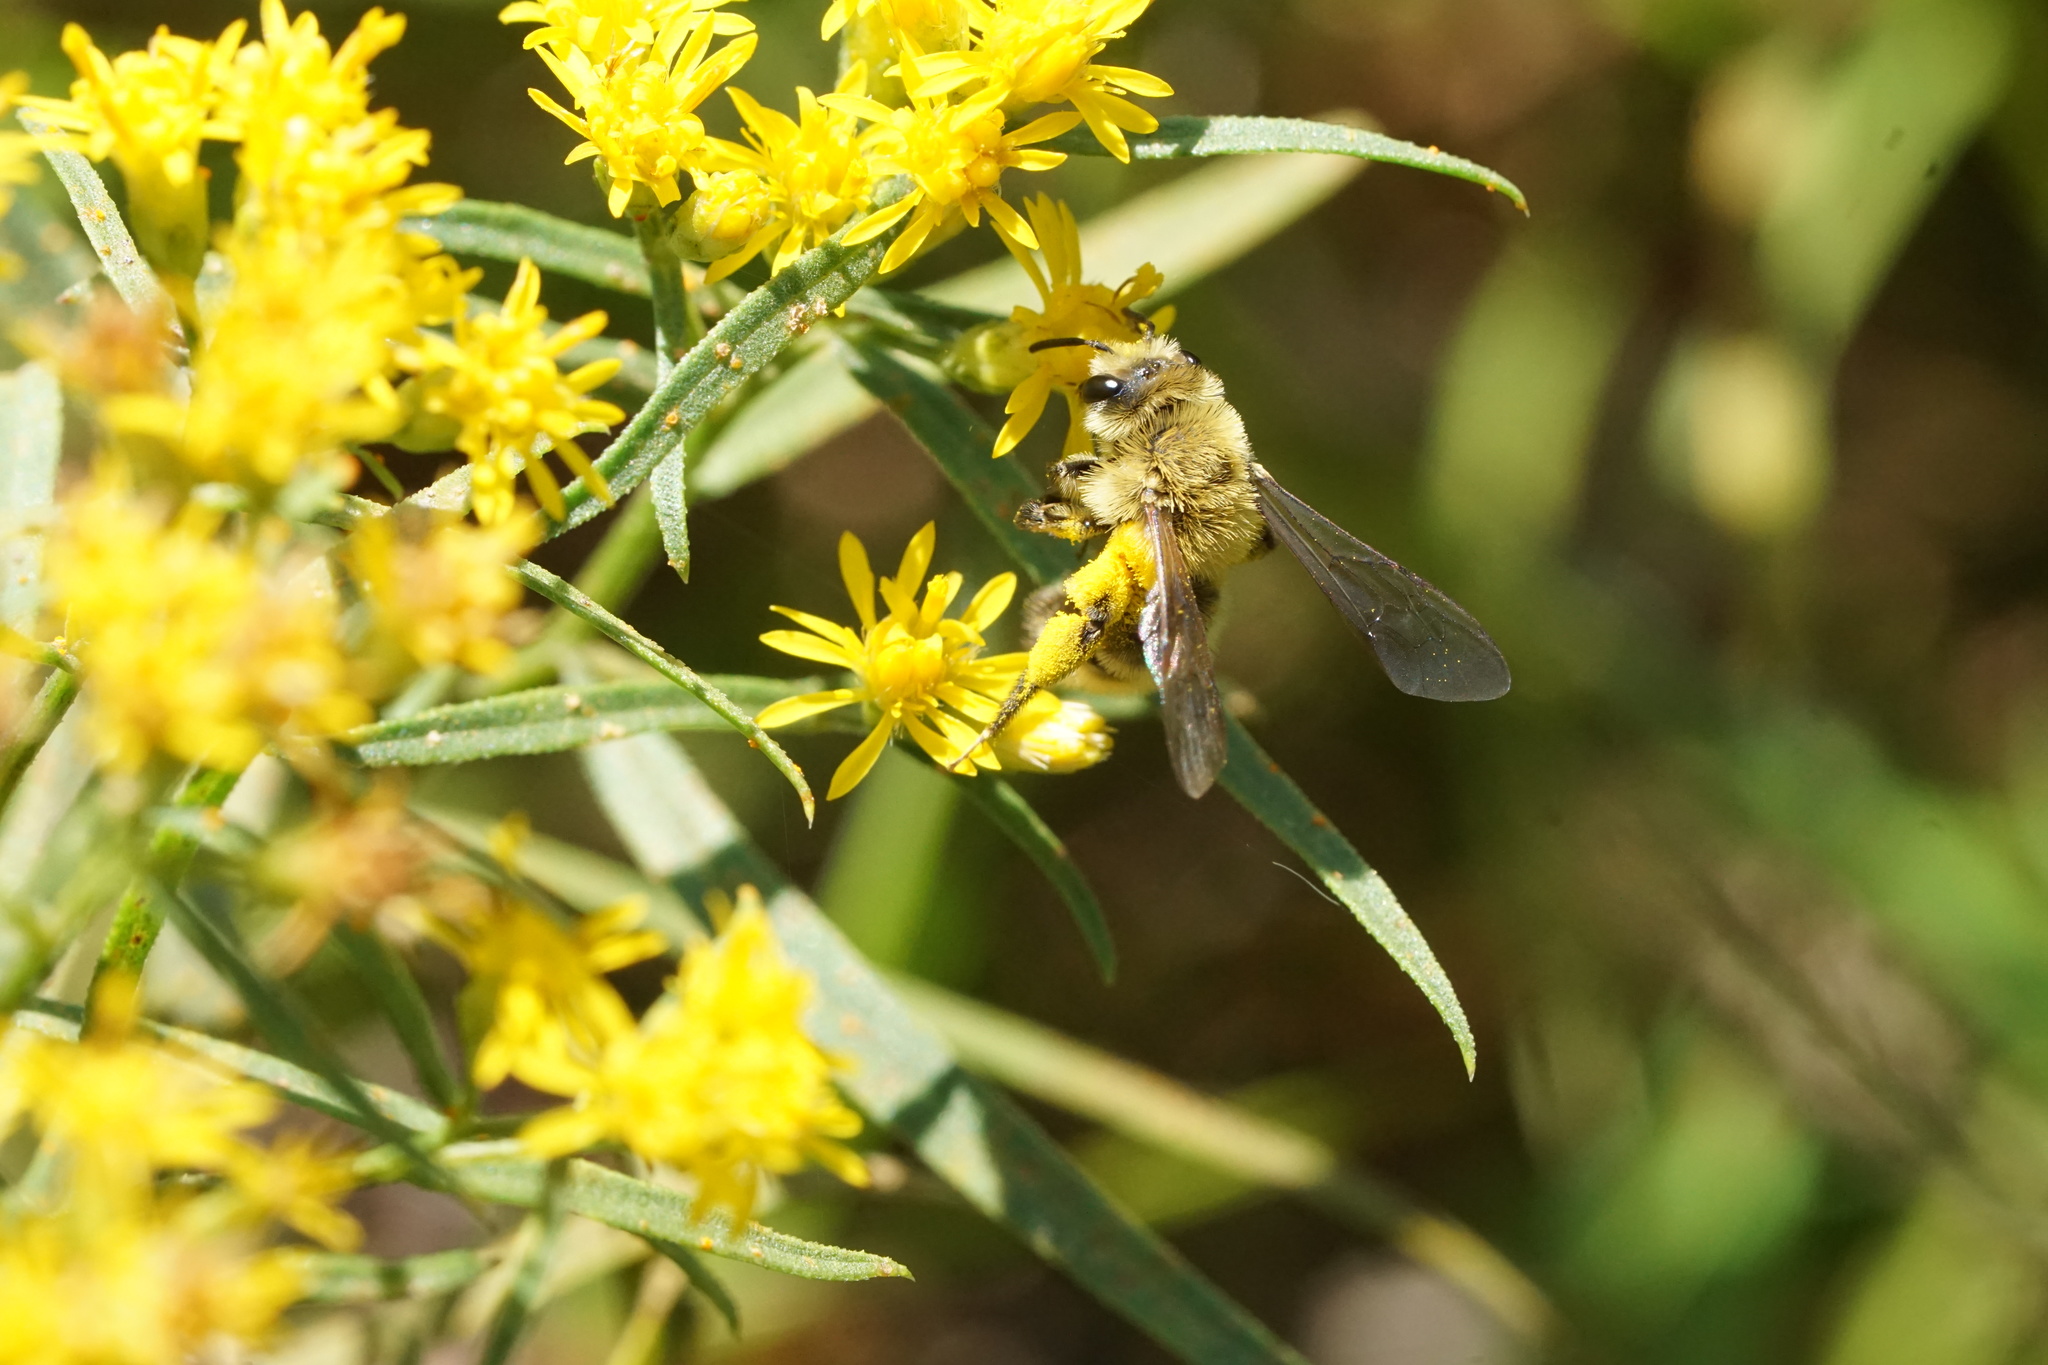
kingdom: Animalia
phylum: Arthropoda
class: Insecta
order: Hymenoptera
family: Andrenidae
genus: Andrena
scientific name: Andrena hirticincta
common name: Hairy-banded mining bee
